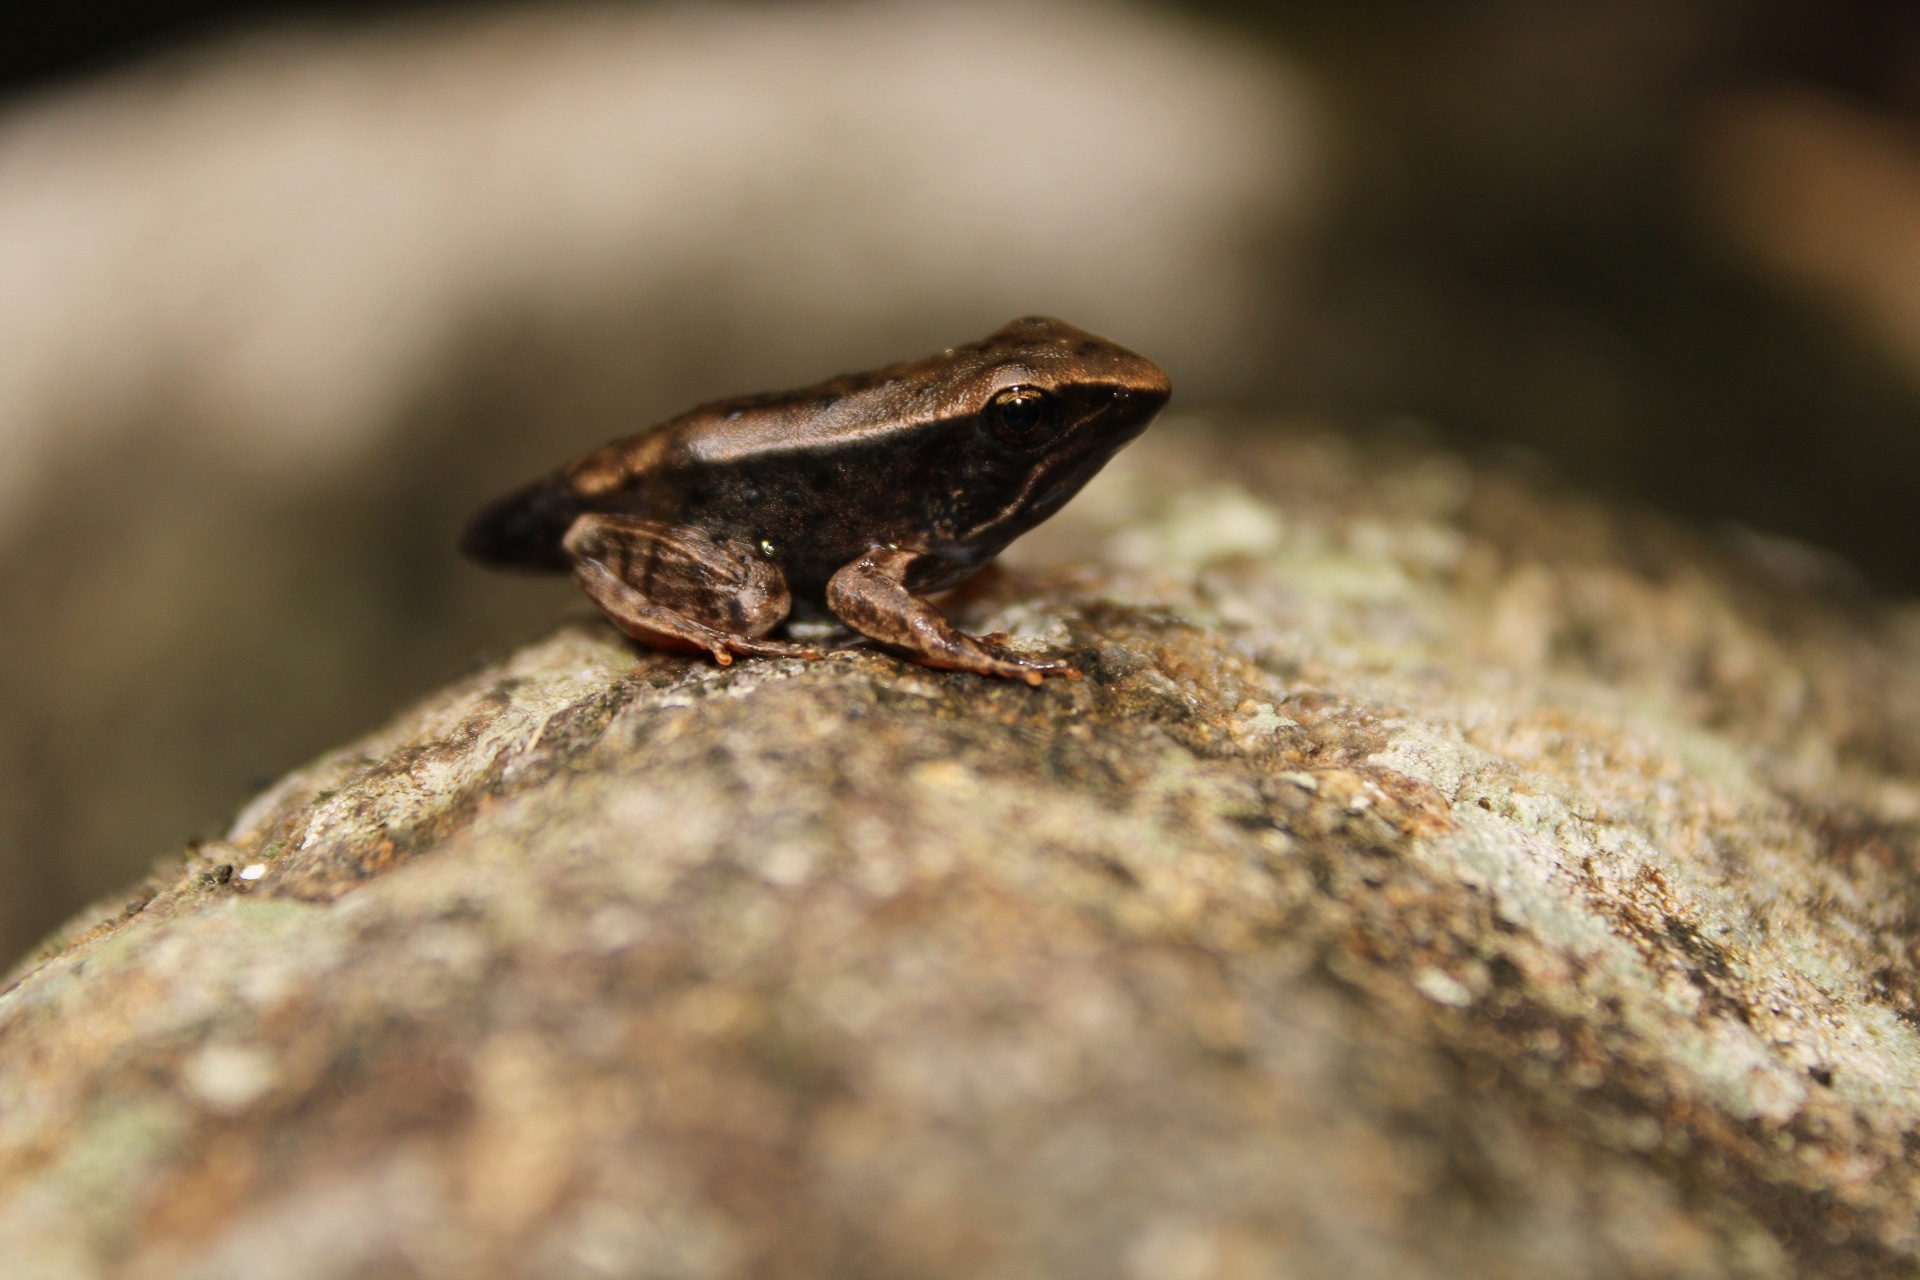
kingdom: Animalia
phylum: Chordata
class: Amphibia
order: Anura
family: Ranidae
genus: Lithobates
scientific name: Lithobates warszewitschii
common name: Warszewitsch's frog
